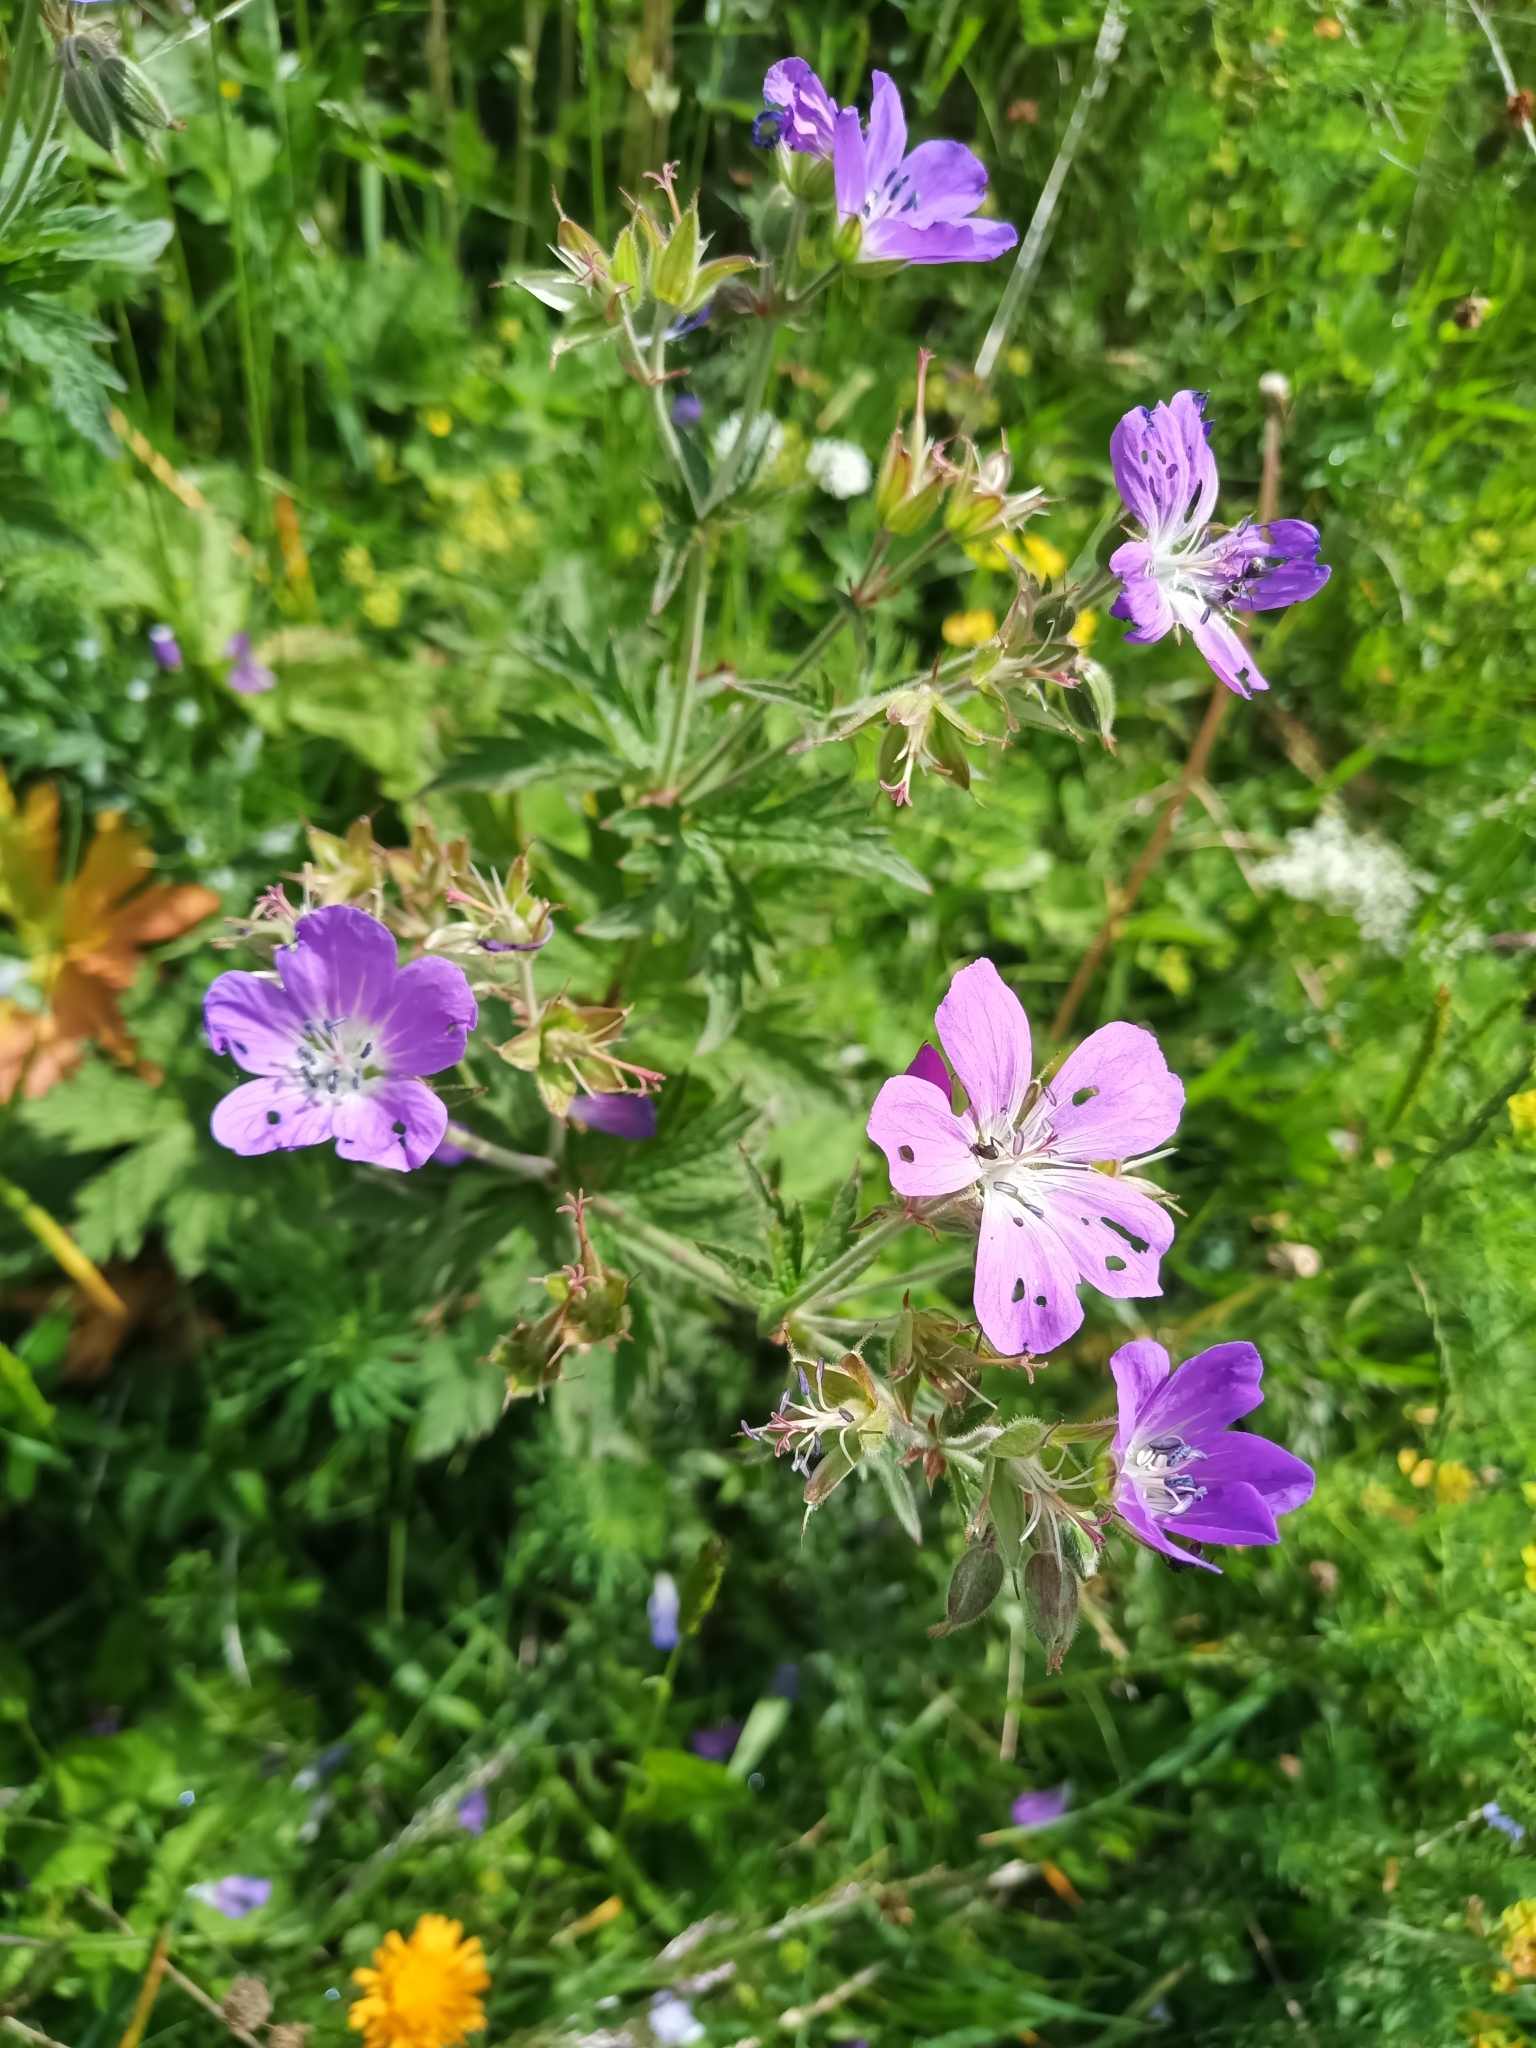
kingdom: Plantae
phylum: Tracheophyta
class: Magnoliopsida
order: Geraniales
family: Geraniaceae
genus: Geranium
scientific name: Geranium sylvaticum
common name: Wood crane's-bill
